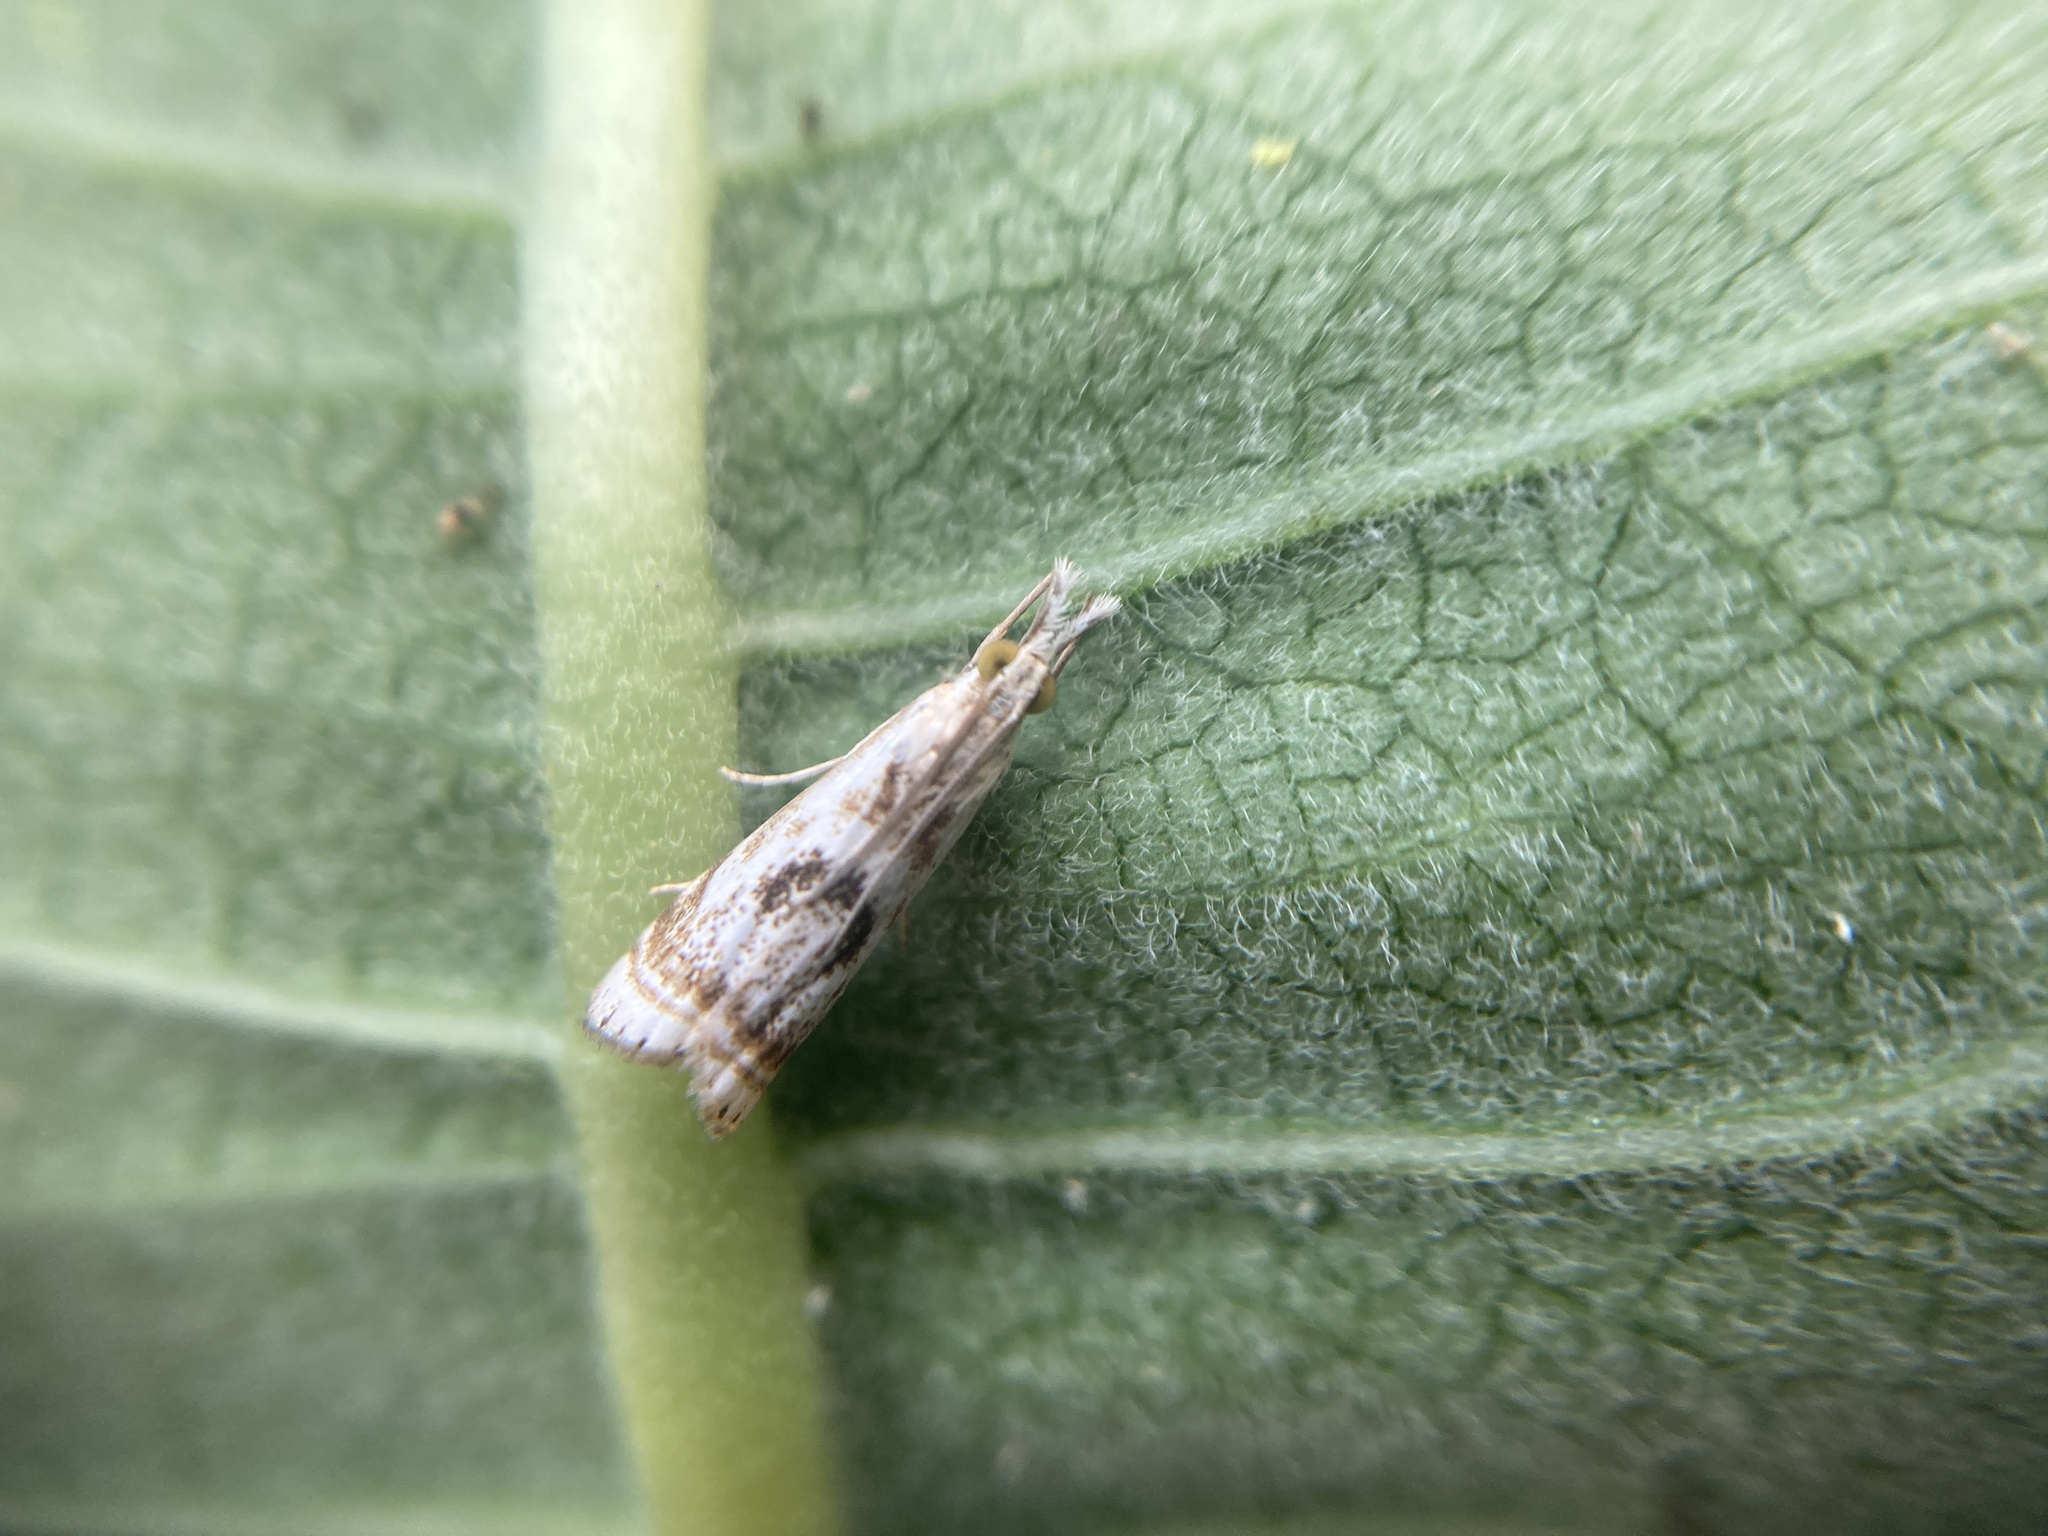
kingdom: Animalia
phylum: Arthropoda
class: Insecta
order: Lepidoptera
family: Crambidae
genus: Microcrambus
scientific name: Microcrambus elegans
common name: Elegant grass-veneer
